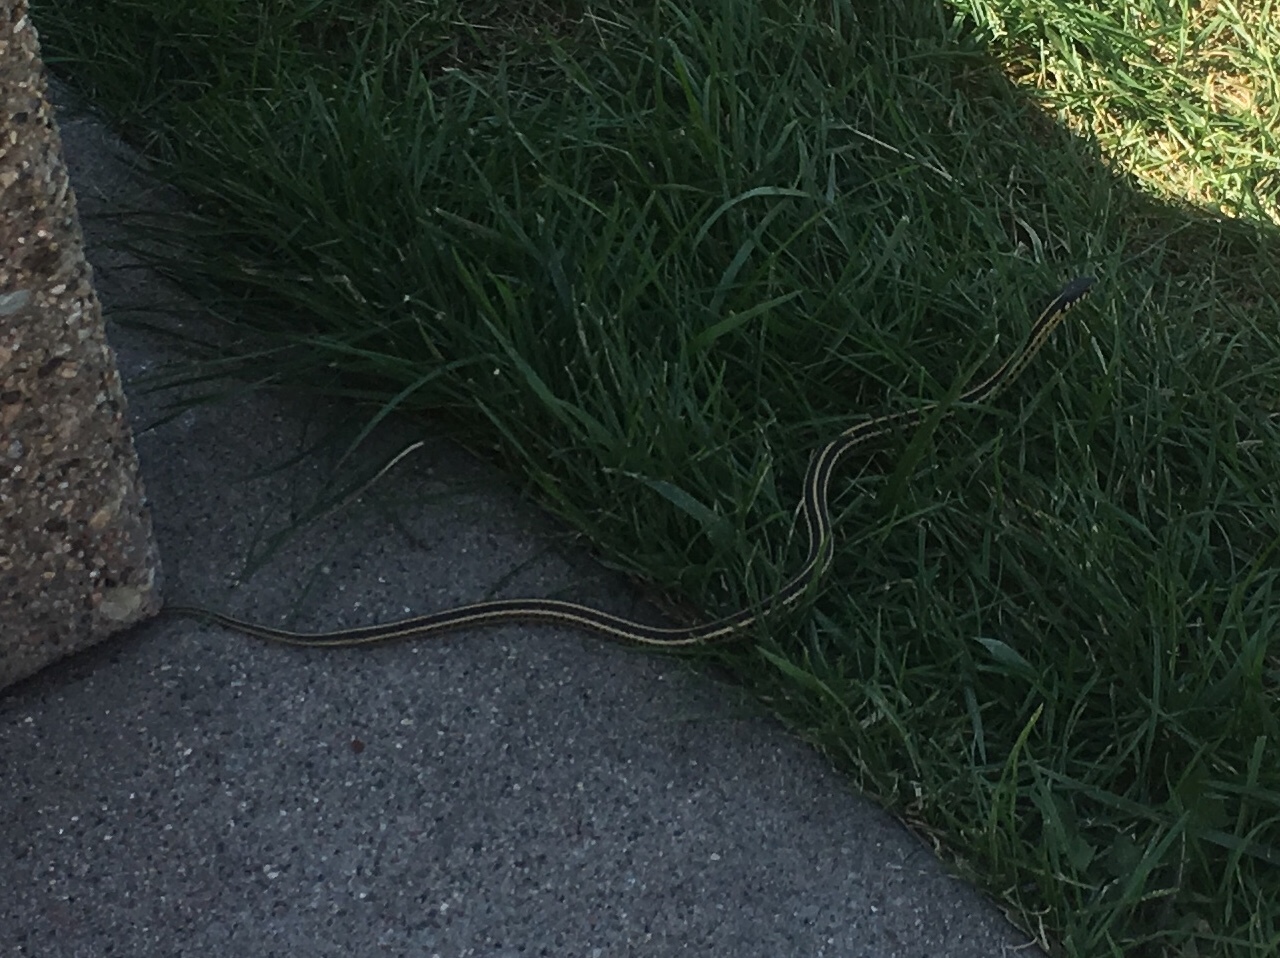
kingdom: Animalia
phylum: Chordata
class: Squamata
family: Colubridae
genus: Thamnophis
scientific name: Thamnophis radix
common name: Plains garter snake
